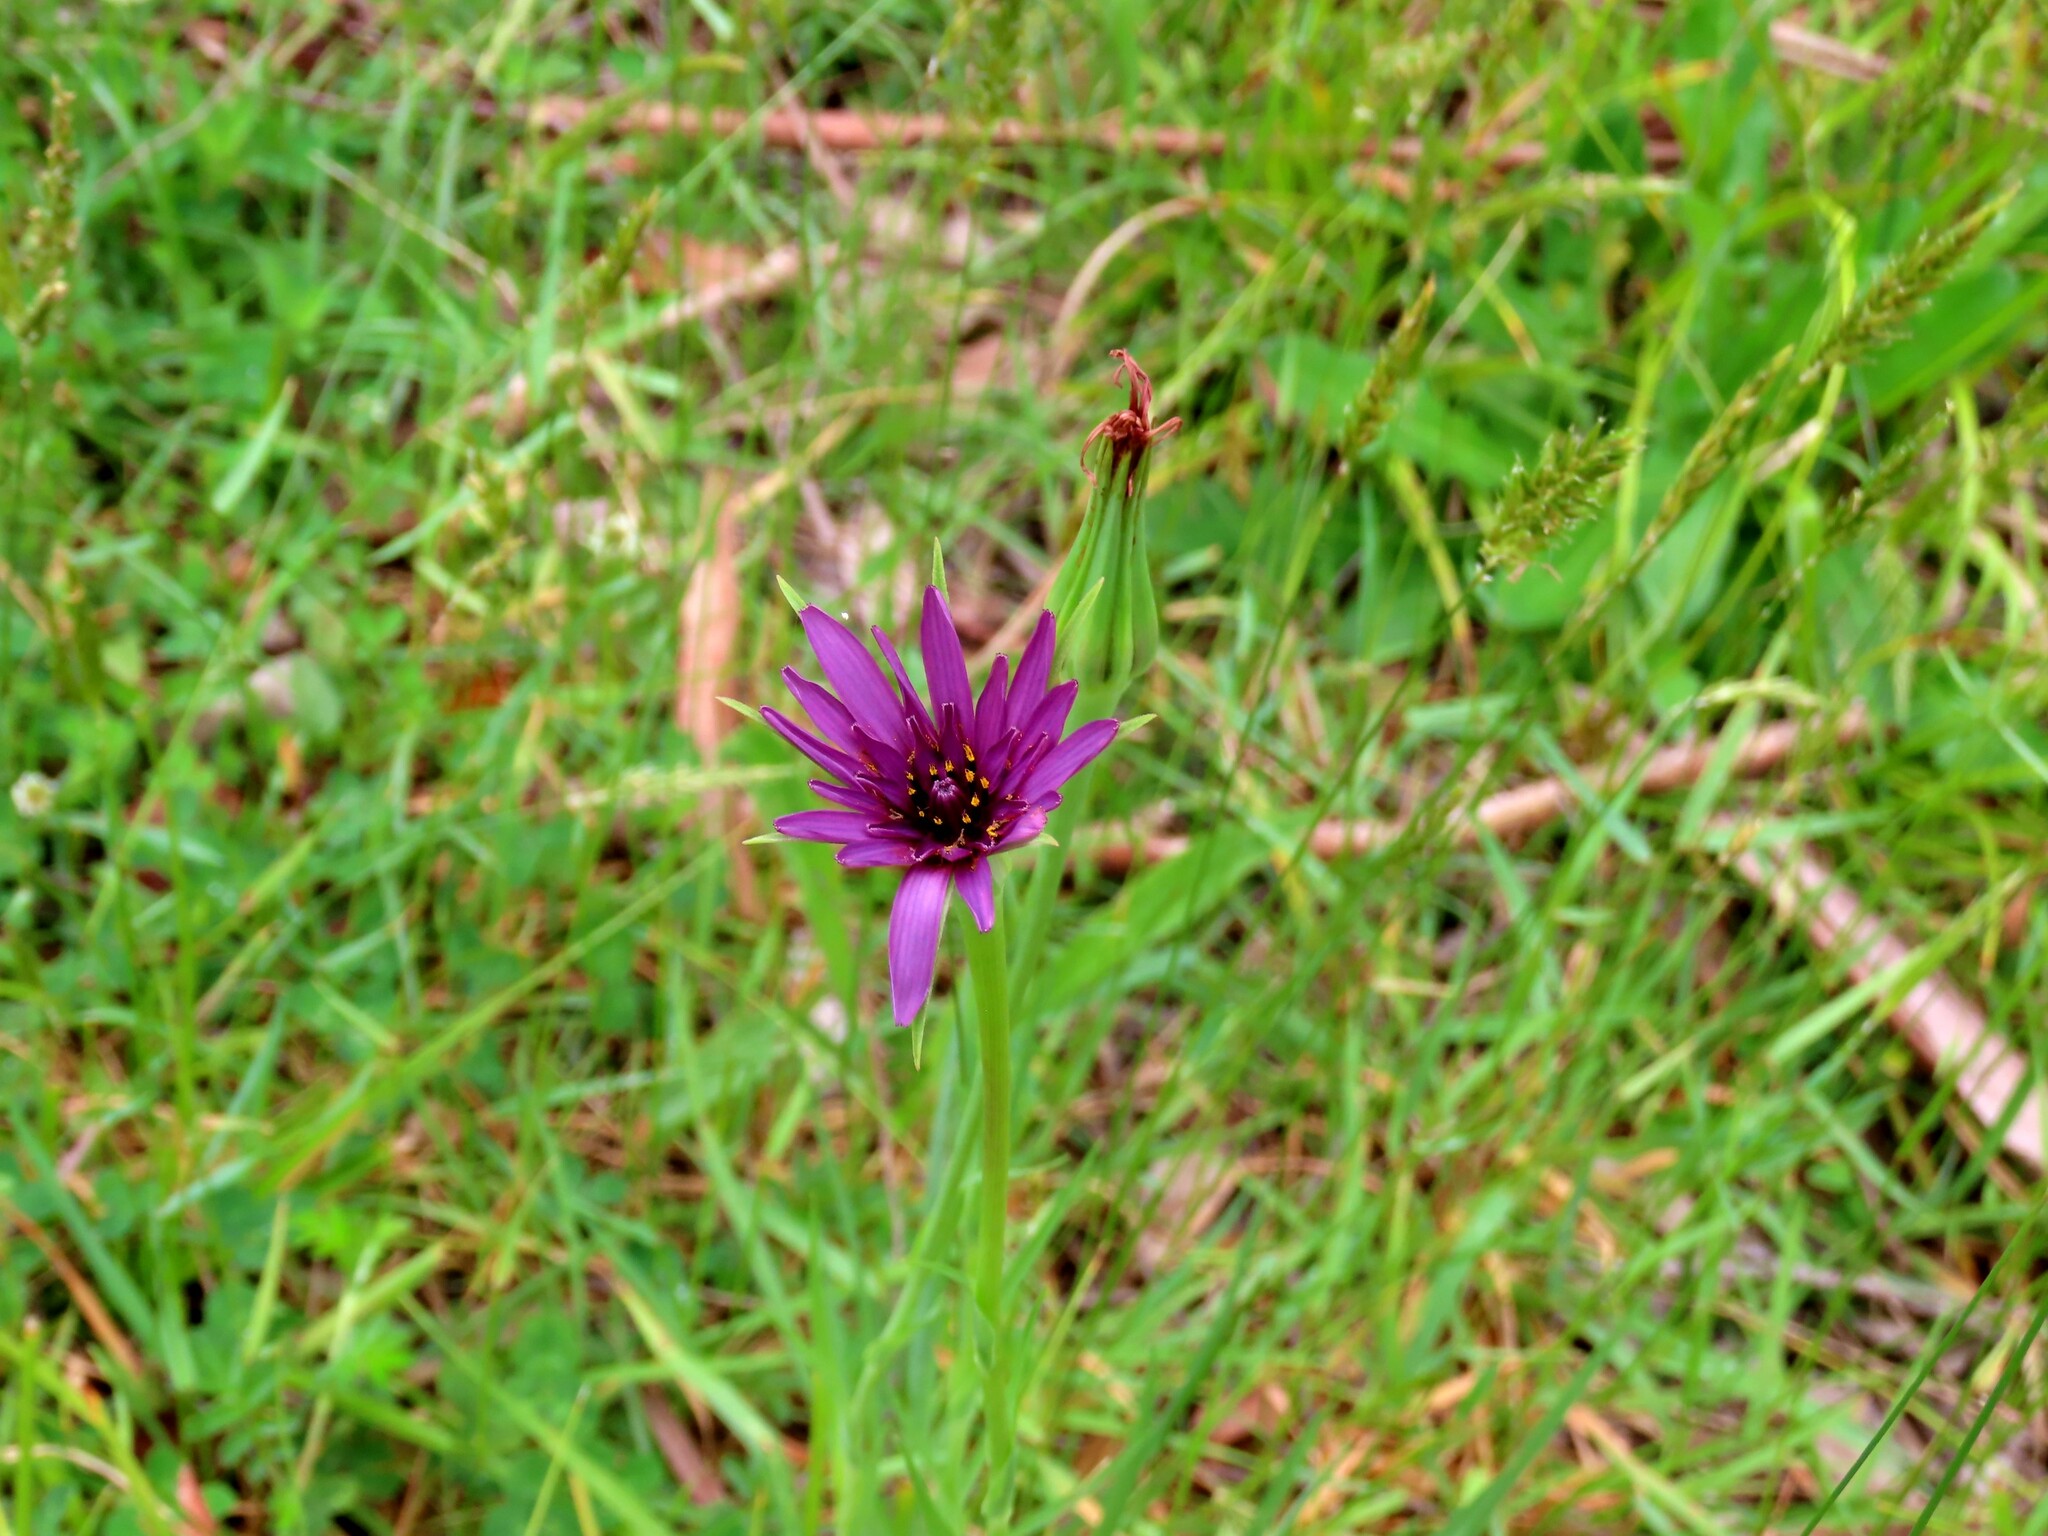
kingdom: Plantae
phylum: Tracheophyta
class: Magnoliopsida
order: Asterales
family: Asteraceae
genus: Tragopogon
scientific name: Tragopogon porrifolius
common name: Salsify
